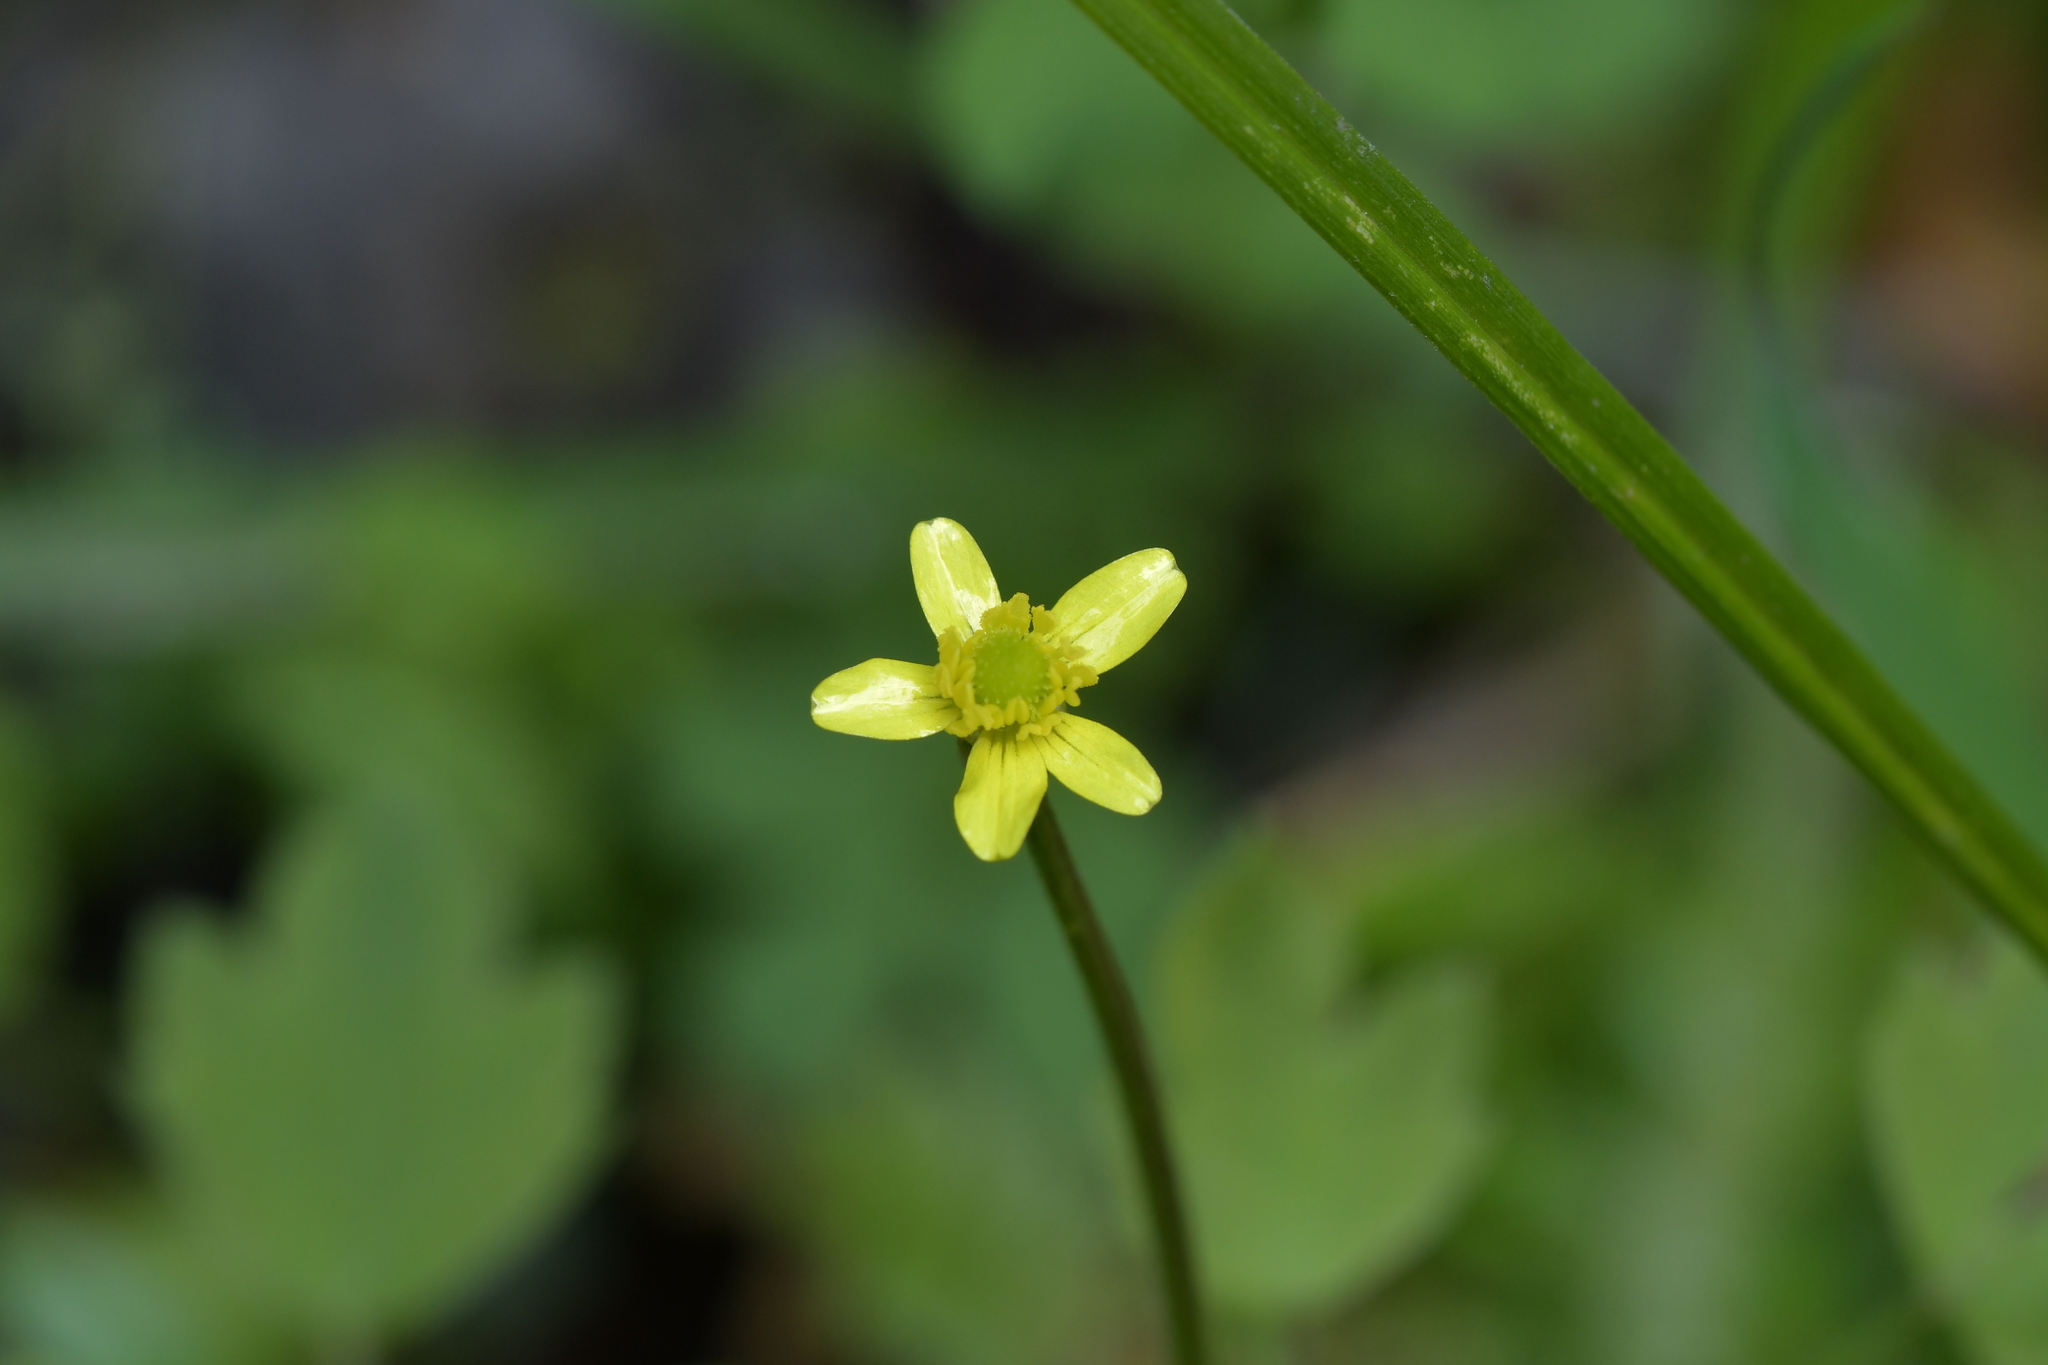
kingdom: Plantae
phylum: Tracheophyta
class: Magnoliopsida
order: Ranunculales
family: Ranunculaceae
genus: Ranunculus
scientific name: Ranunculus reflexus
